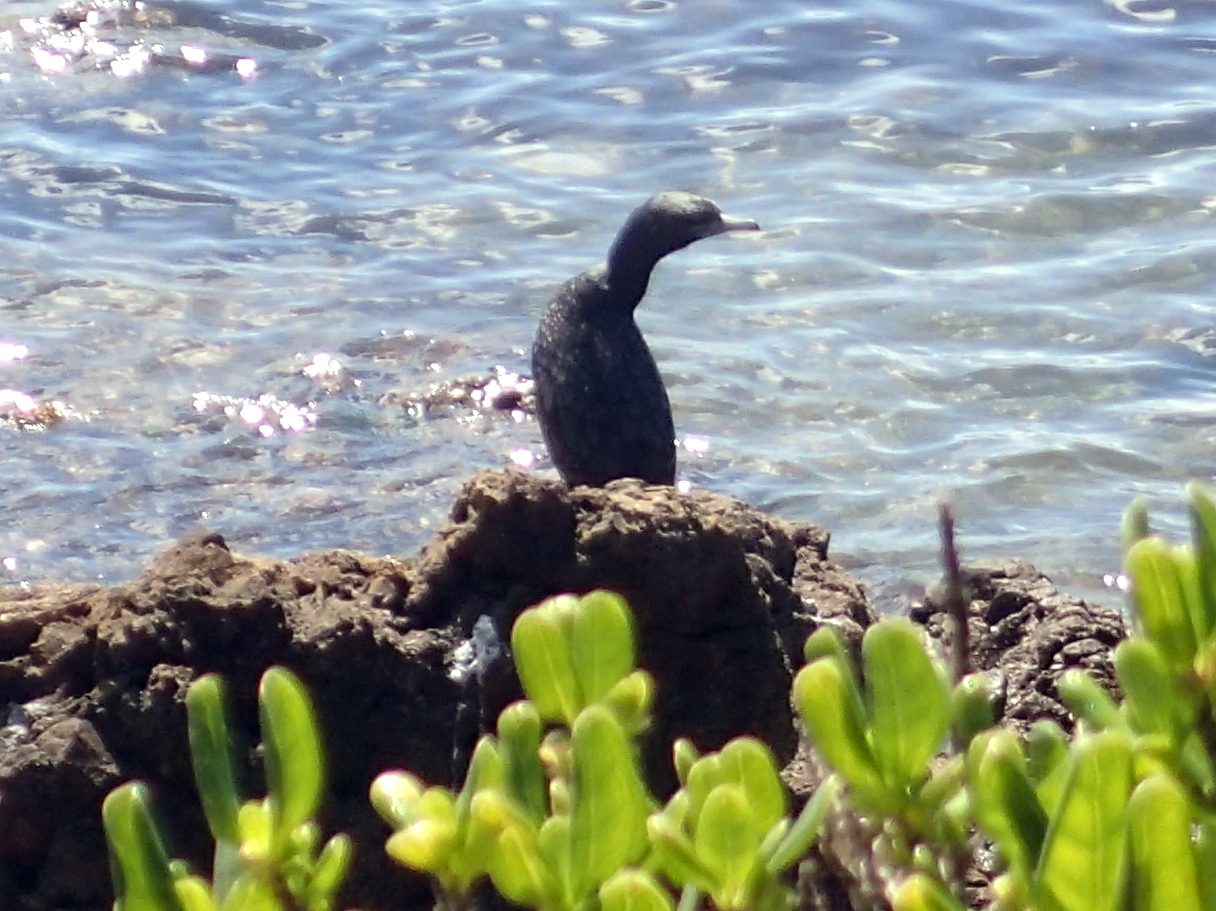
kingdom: Animalia
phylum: Chordata
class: Aves
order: Suliformes
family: Phalacrocoracidae
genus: Phalacrocorax
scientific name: Phalacrocorax sulcirostris
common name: Little black cormorant
